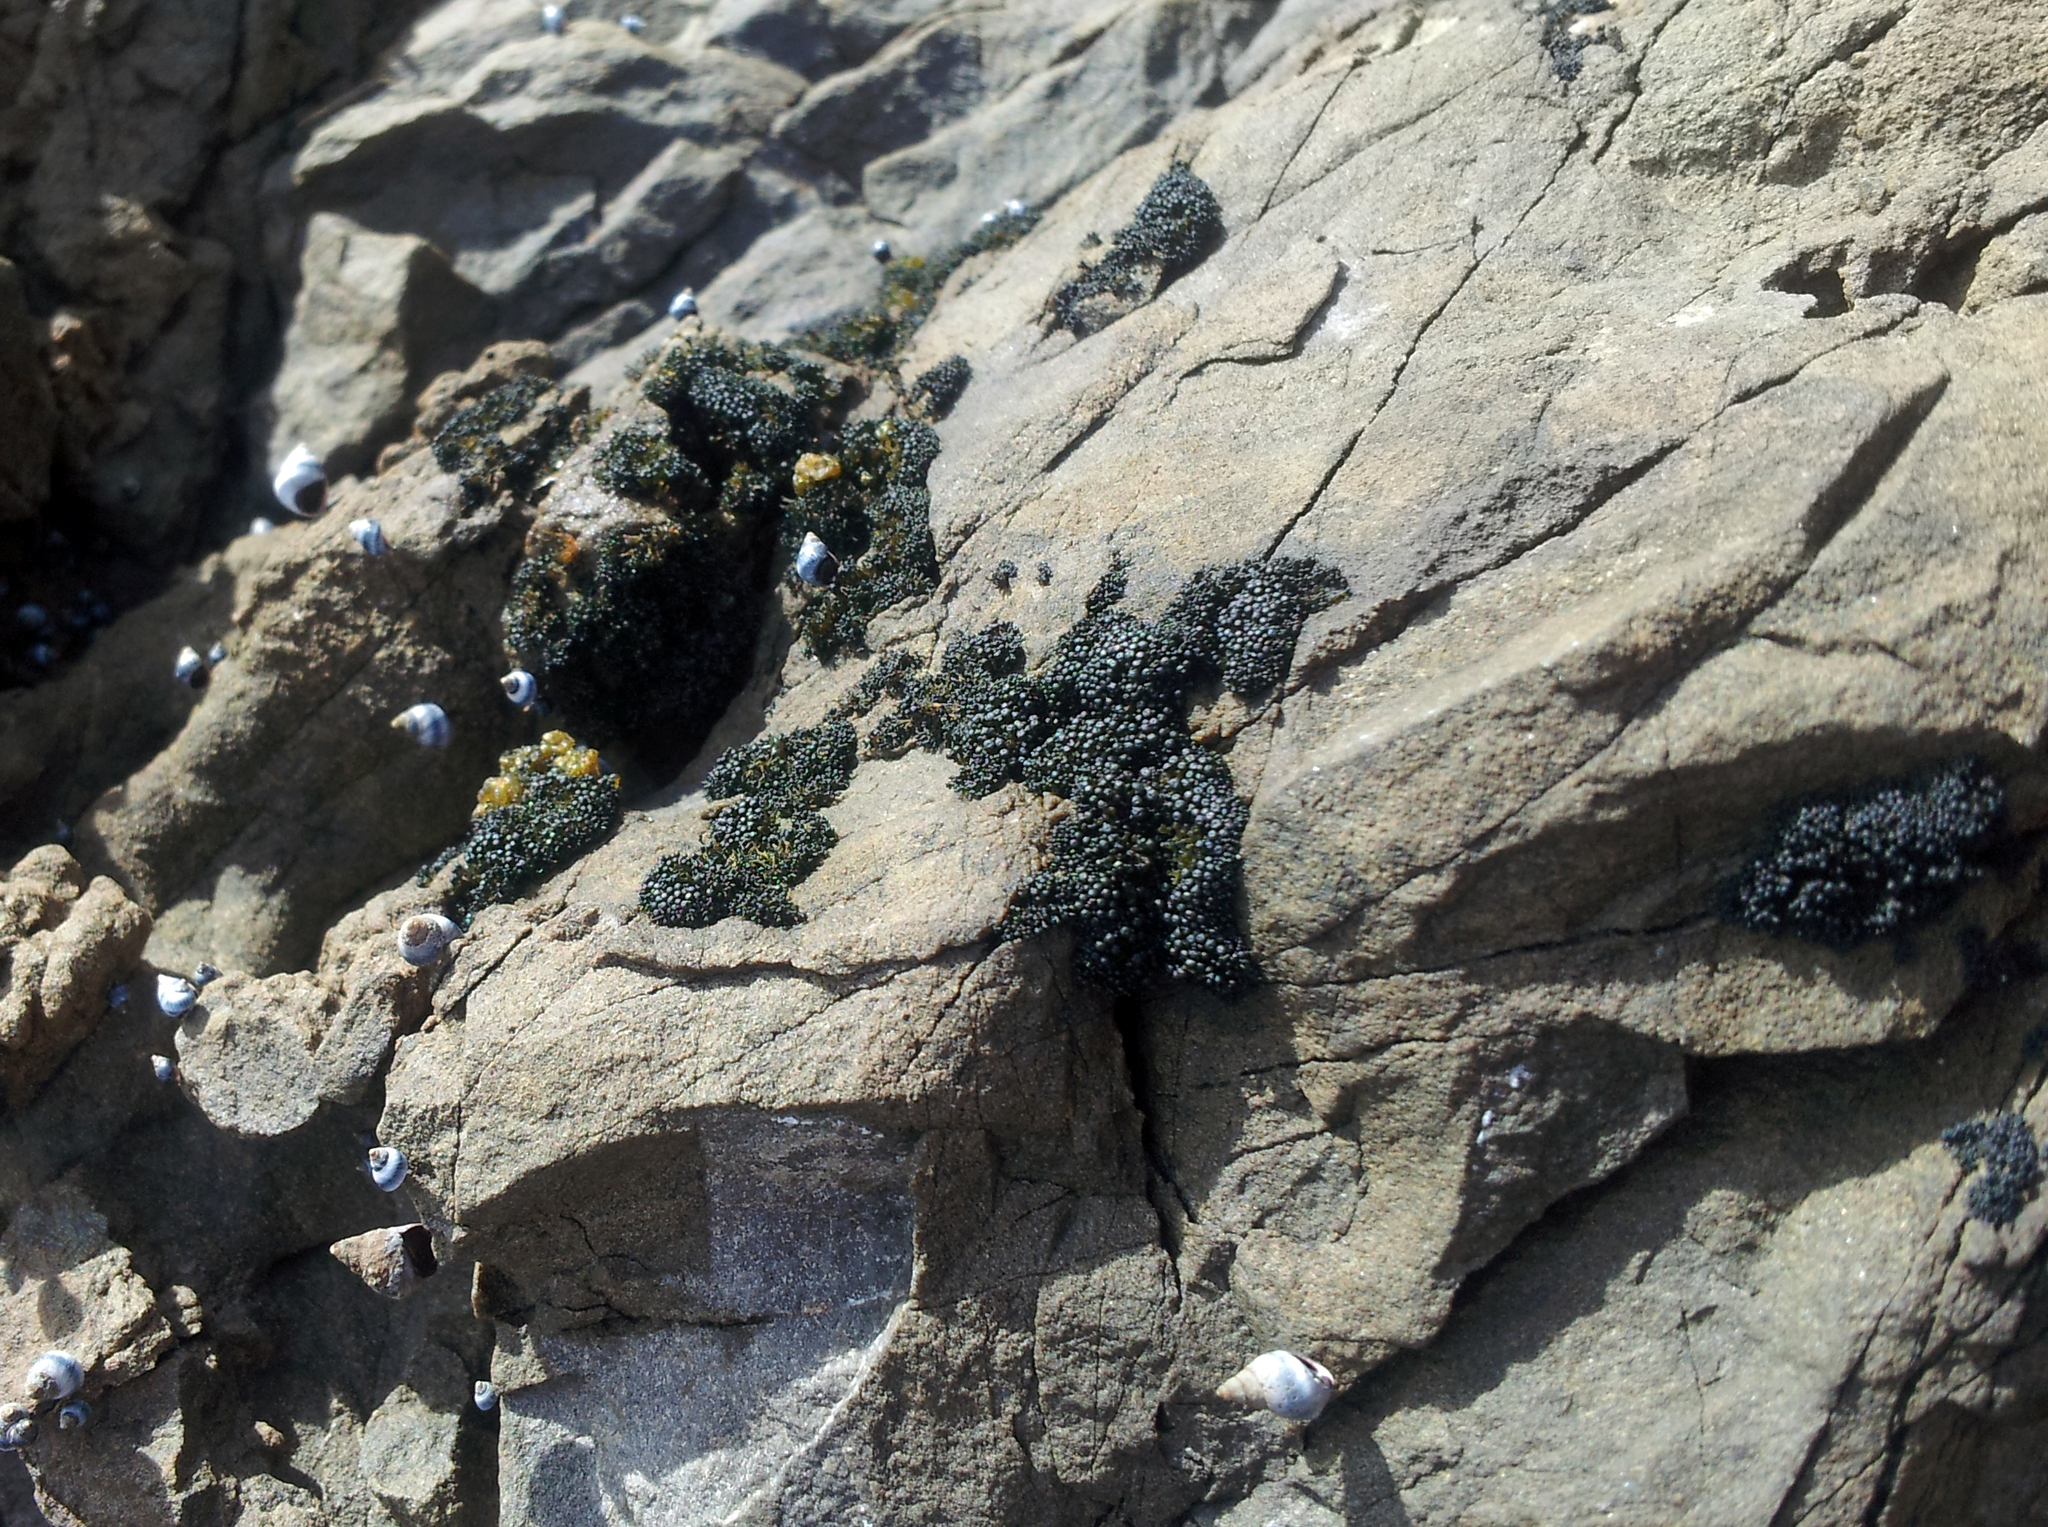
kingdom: Fungi
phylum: Ascomycota
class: Lichinomycetes
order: Lichinales
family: Lichinaceae
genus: Lichina
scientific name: Lichina intermedia
